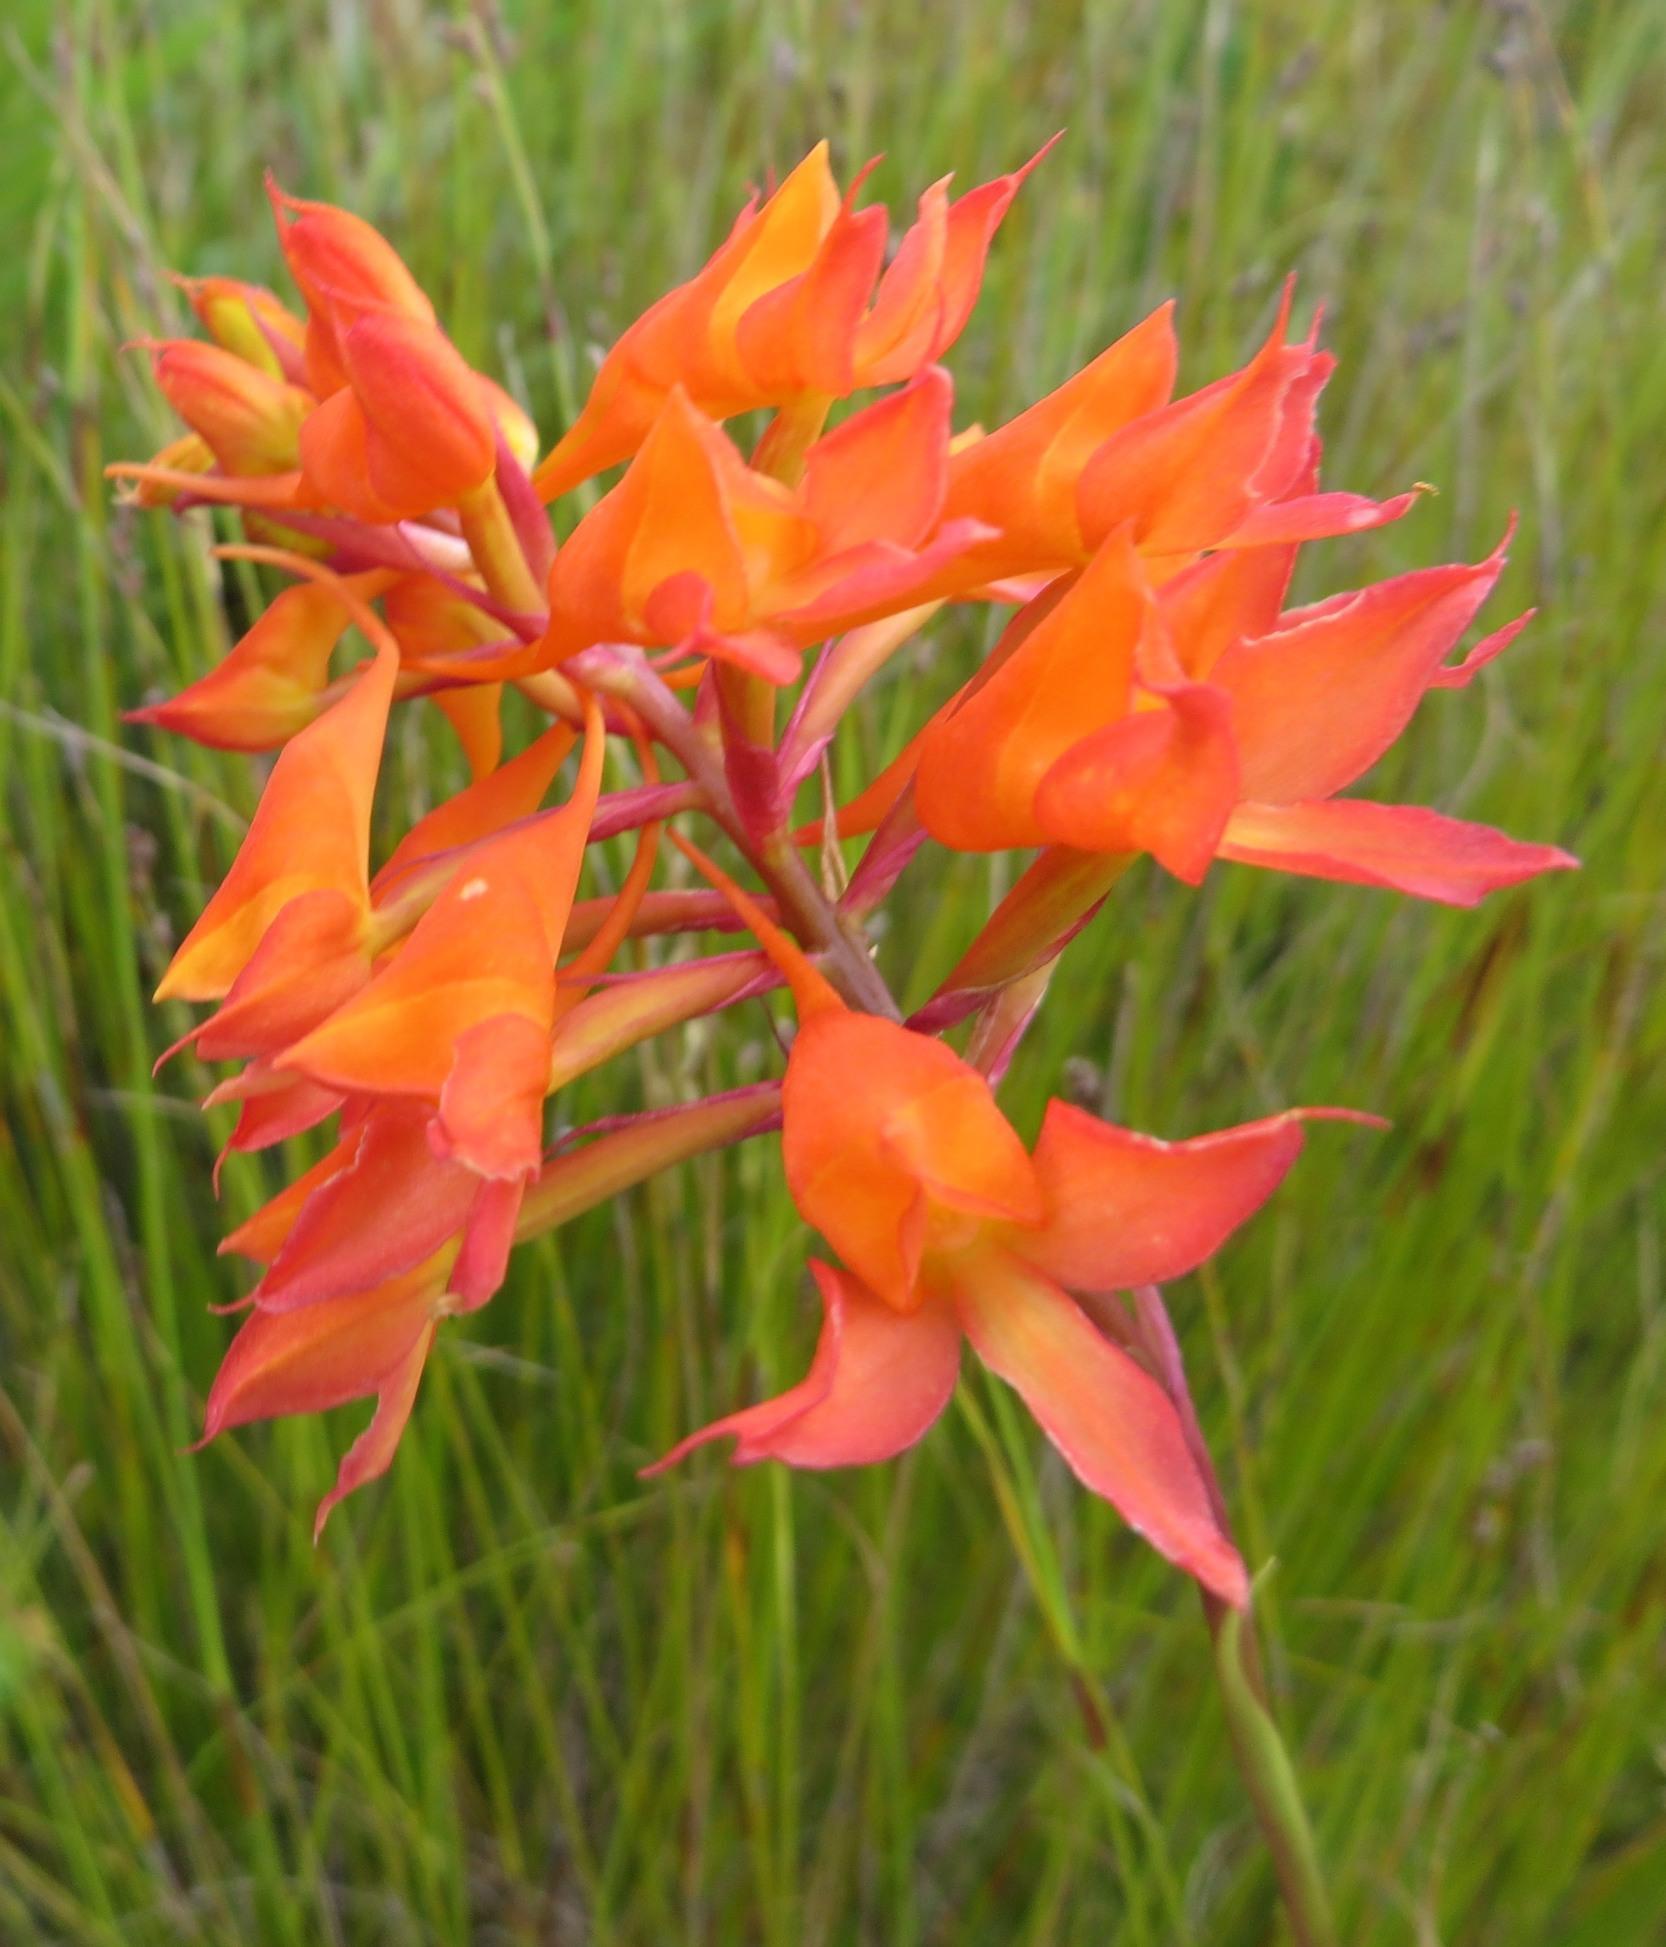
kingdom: Plantae
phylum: Tracheophyta
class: Liliopsida
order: Asparagales
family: Orchidaceae
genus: Disa
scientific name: Disa ferruginea
